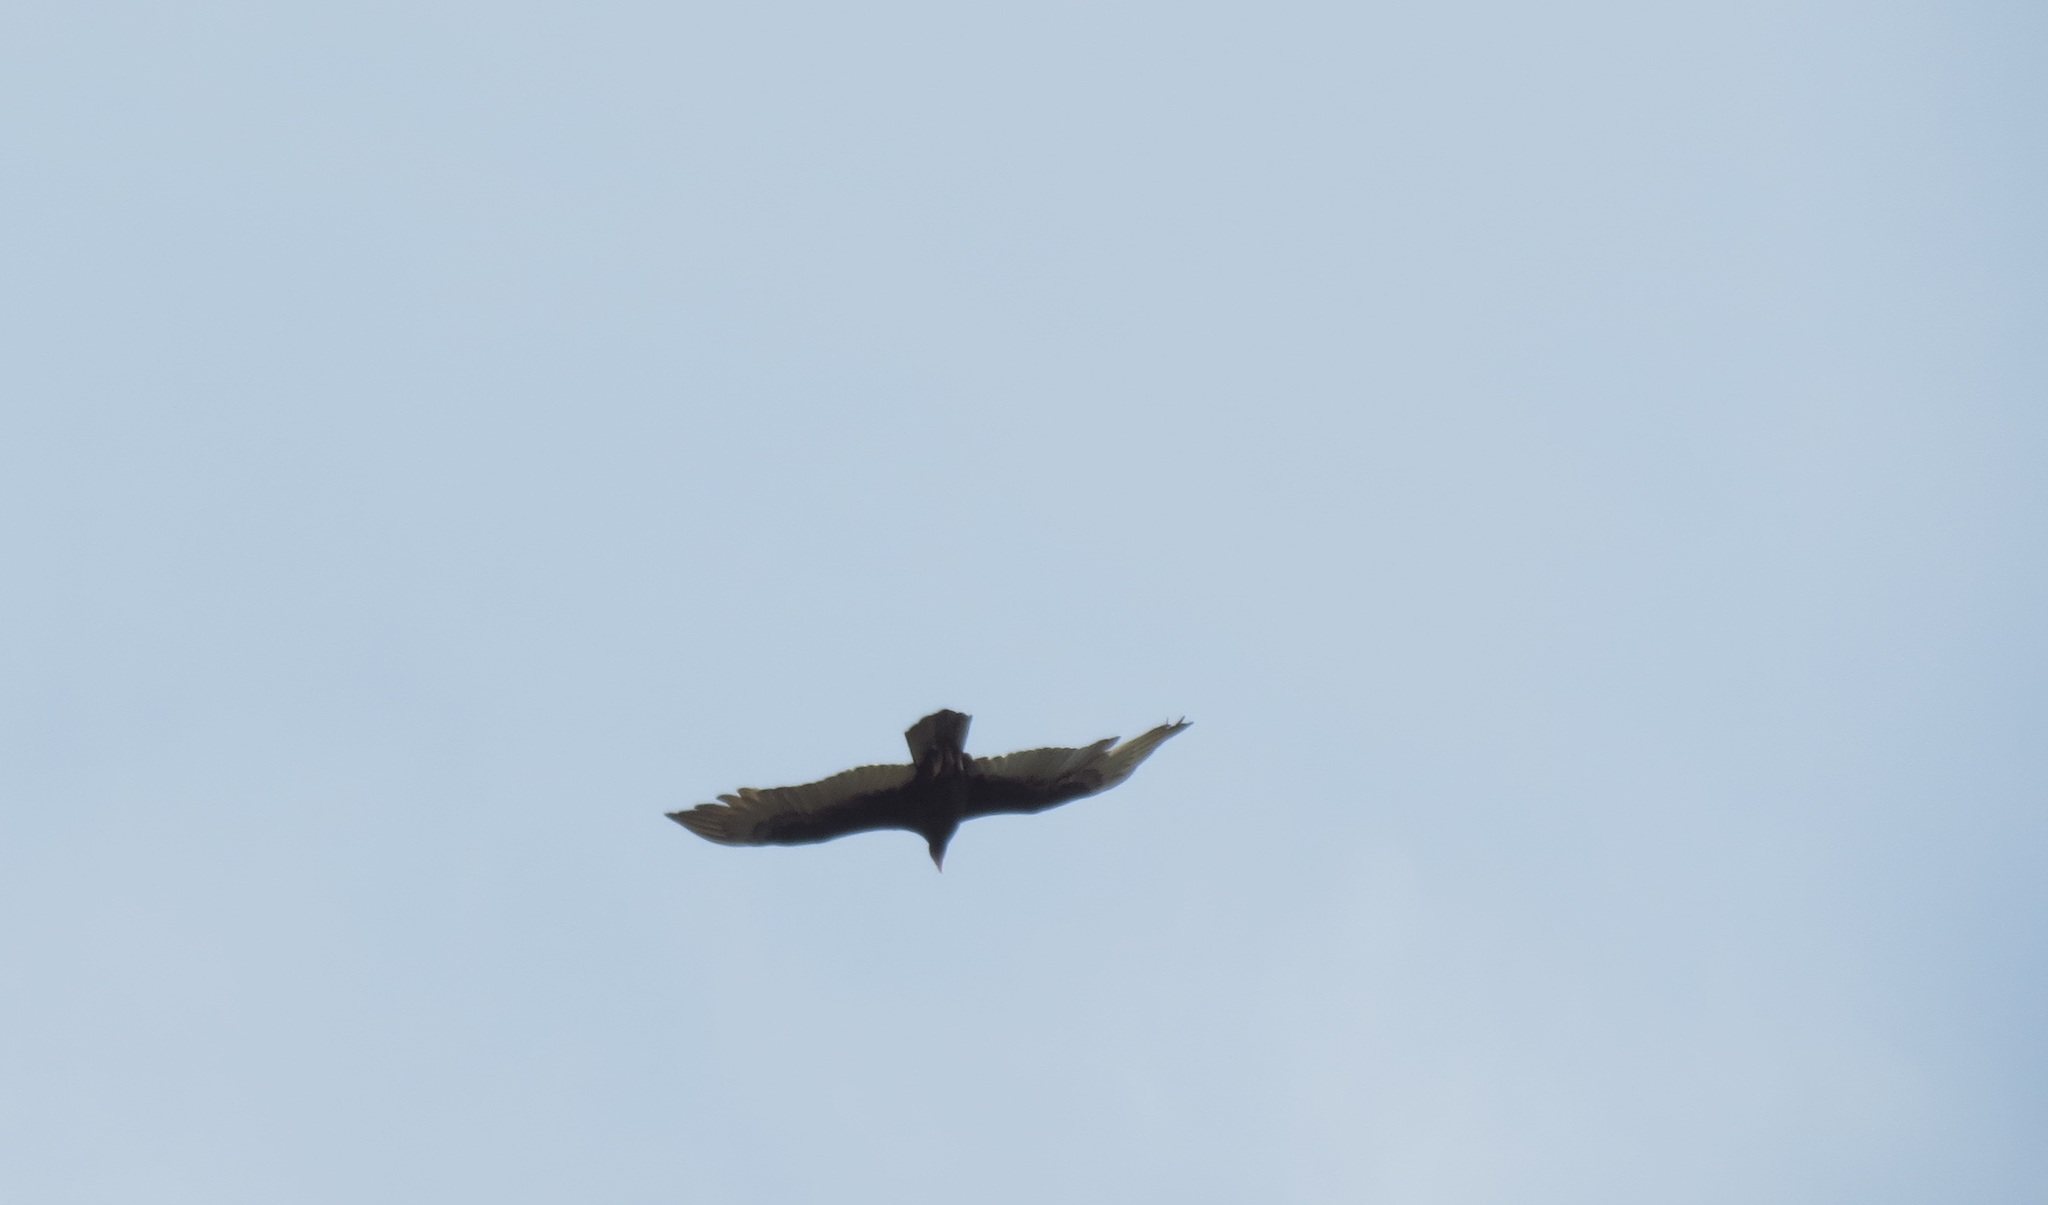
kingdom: Animalia
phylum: Chordata
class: Aves
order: Accipitriformes
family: Cathartidae
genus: Cathartes
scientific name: Cathartes aura
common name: Turkey vulture
